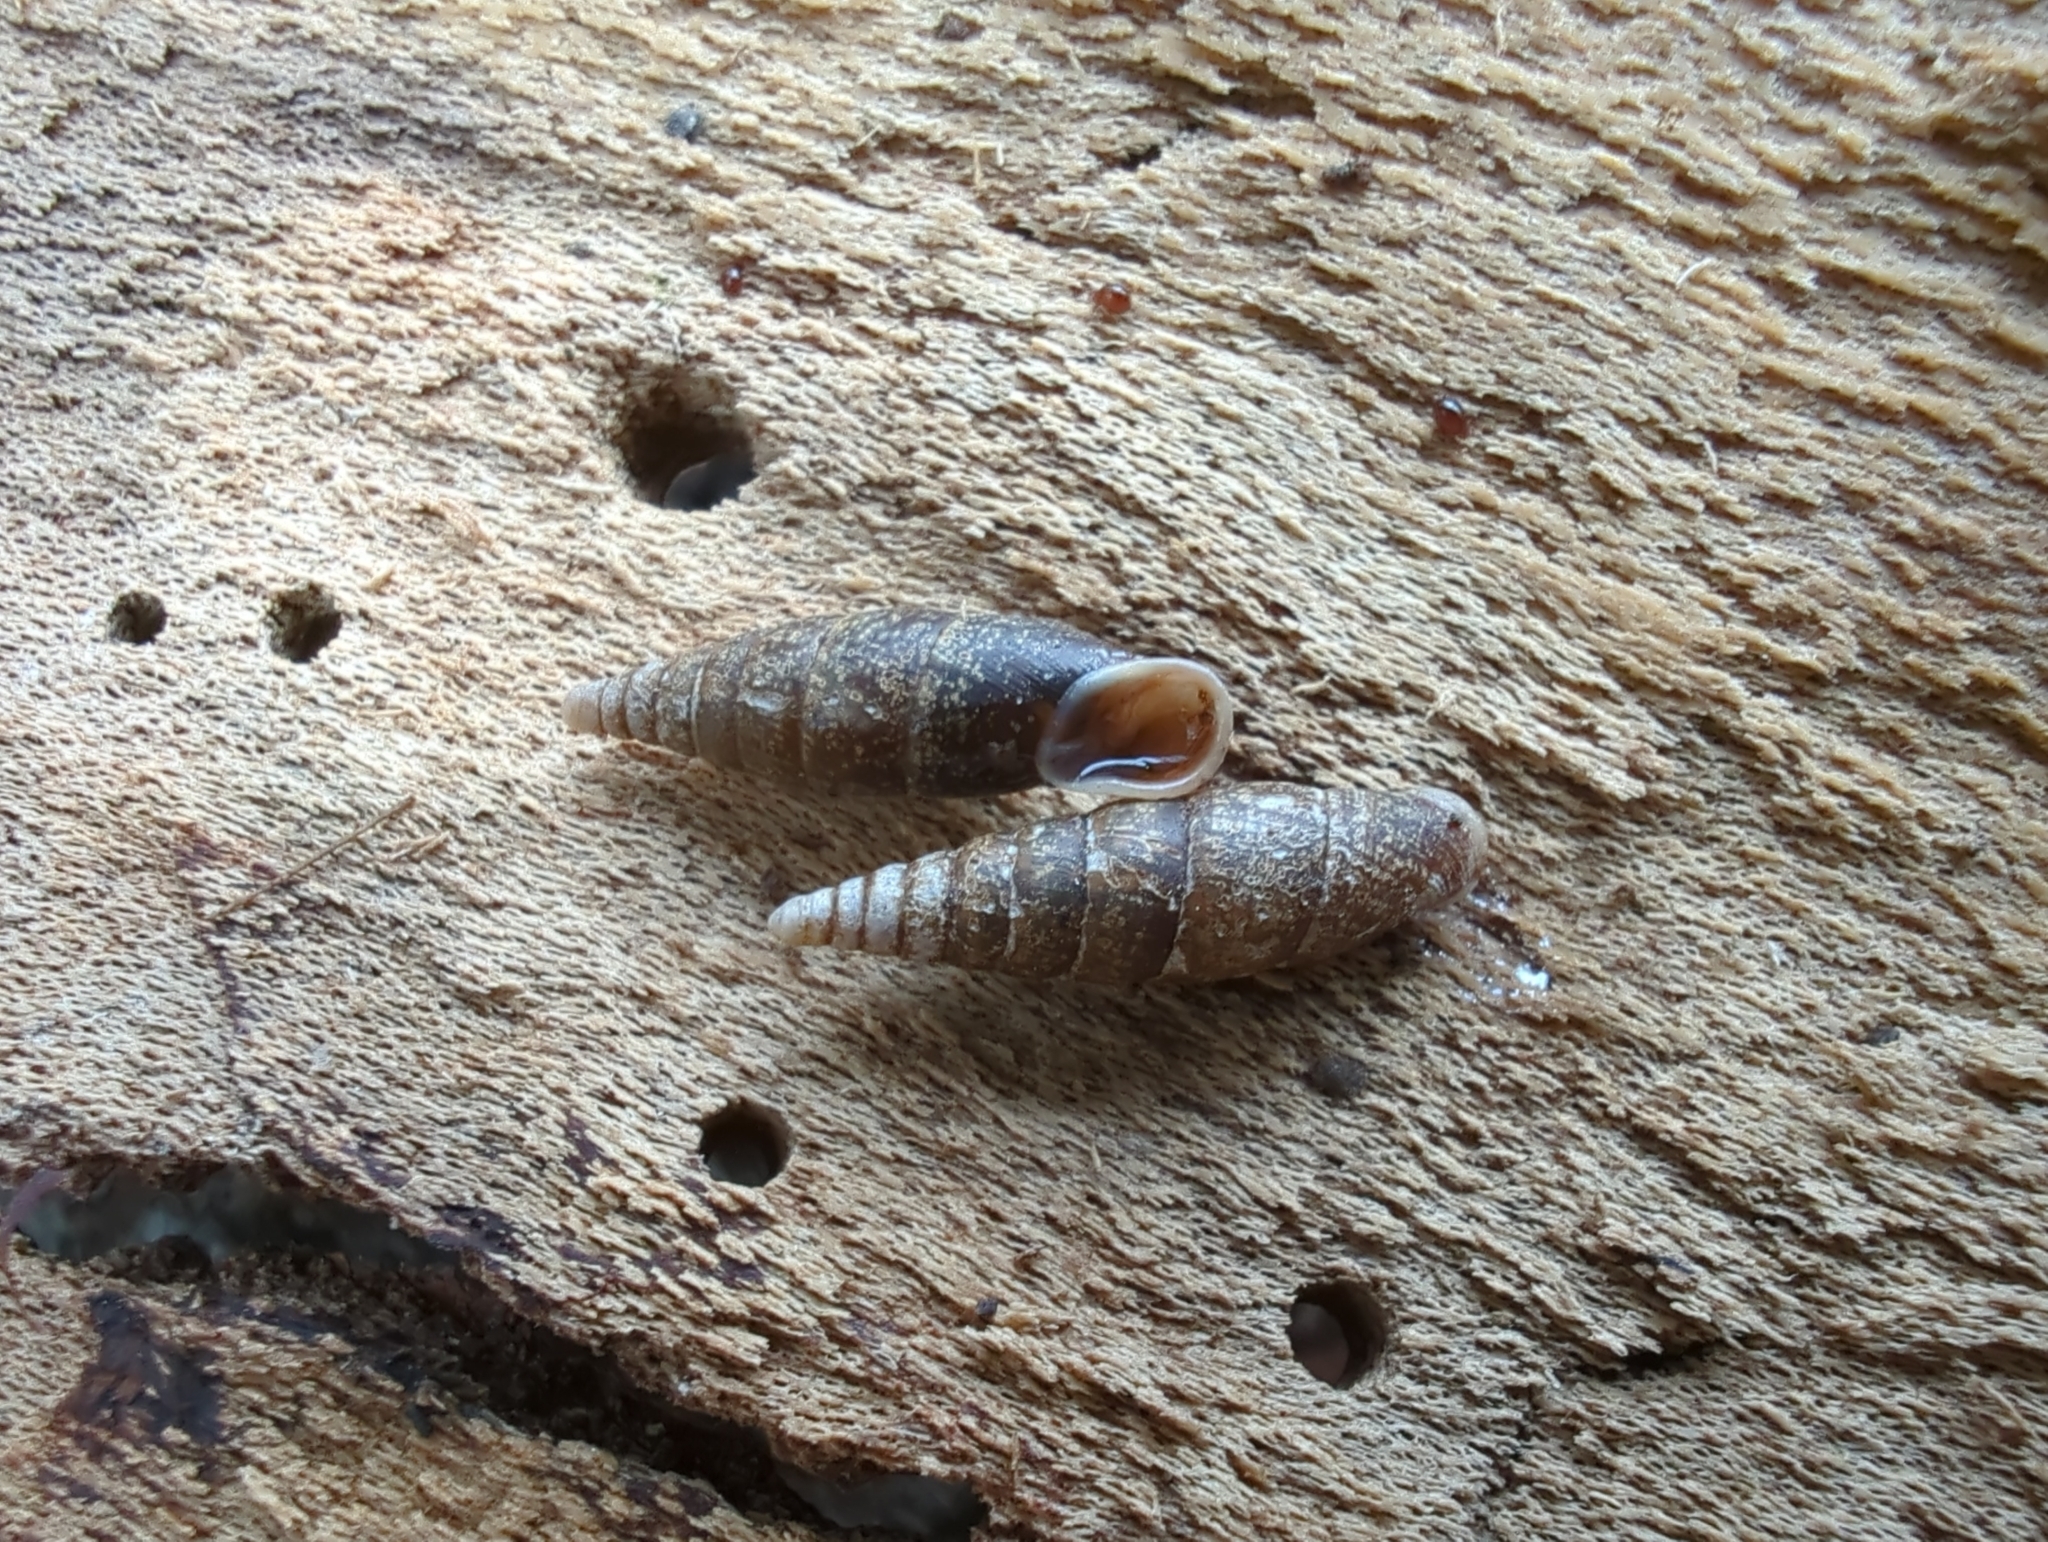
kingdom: Animalia
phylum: Mollusca
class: Gastropoda
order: Stylommatophora
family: Clausiliidae
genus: Cochlodina
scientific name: Cochlodina laminata
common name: Plaited door snail
